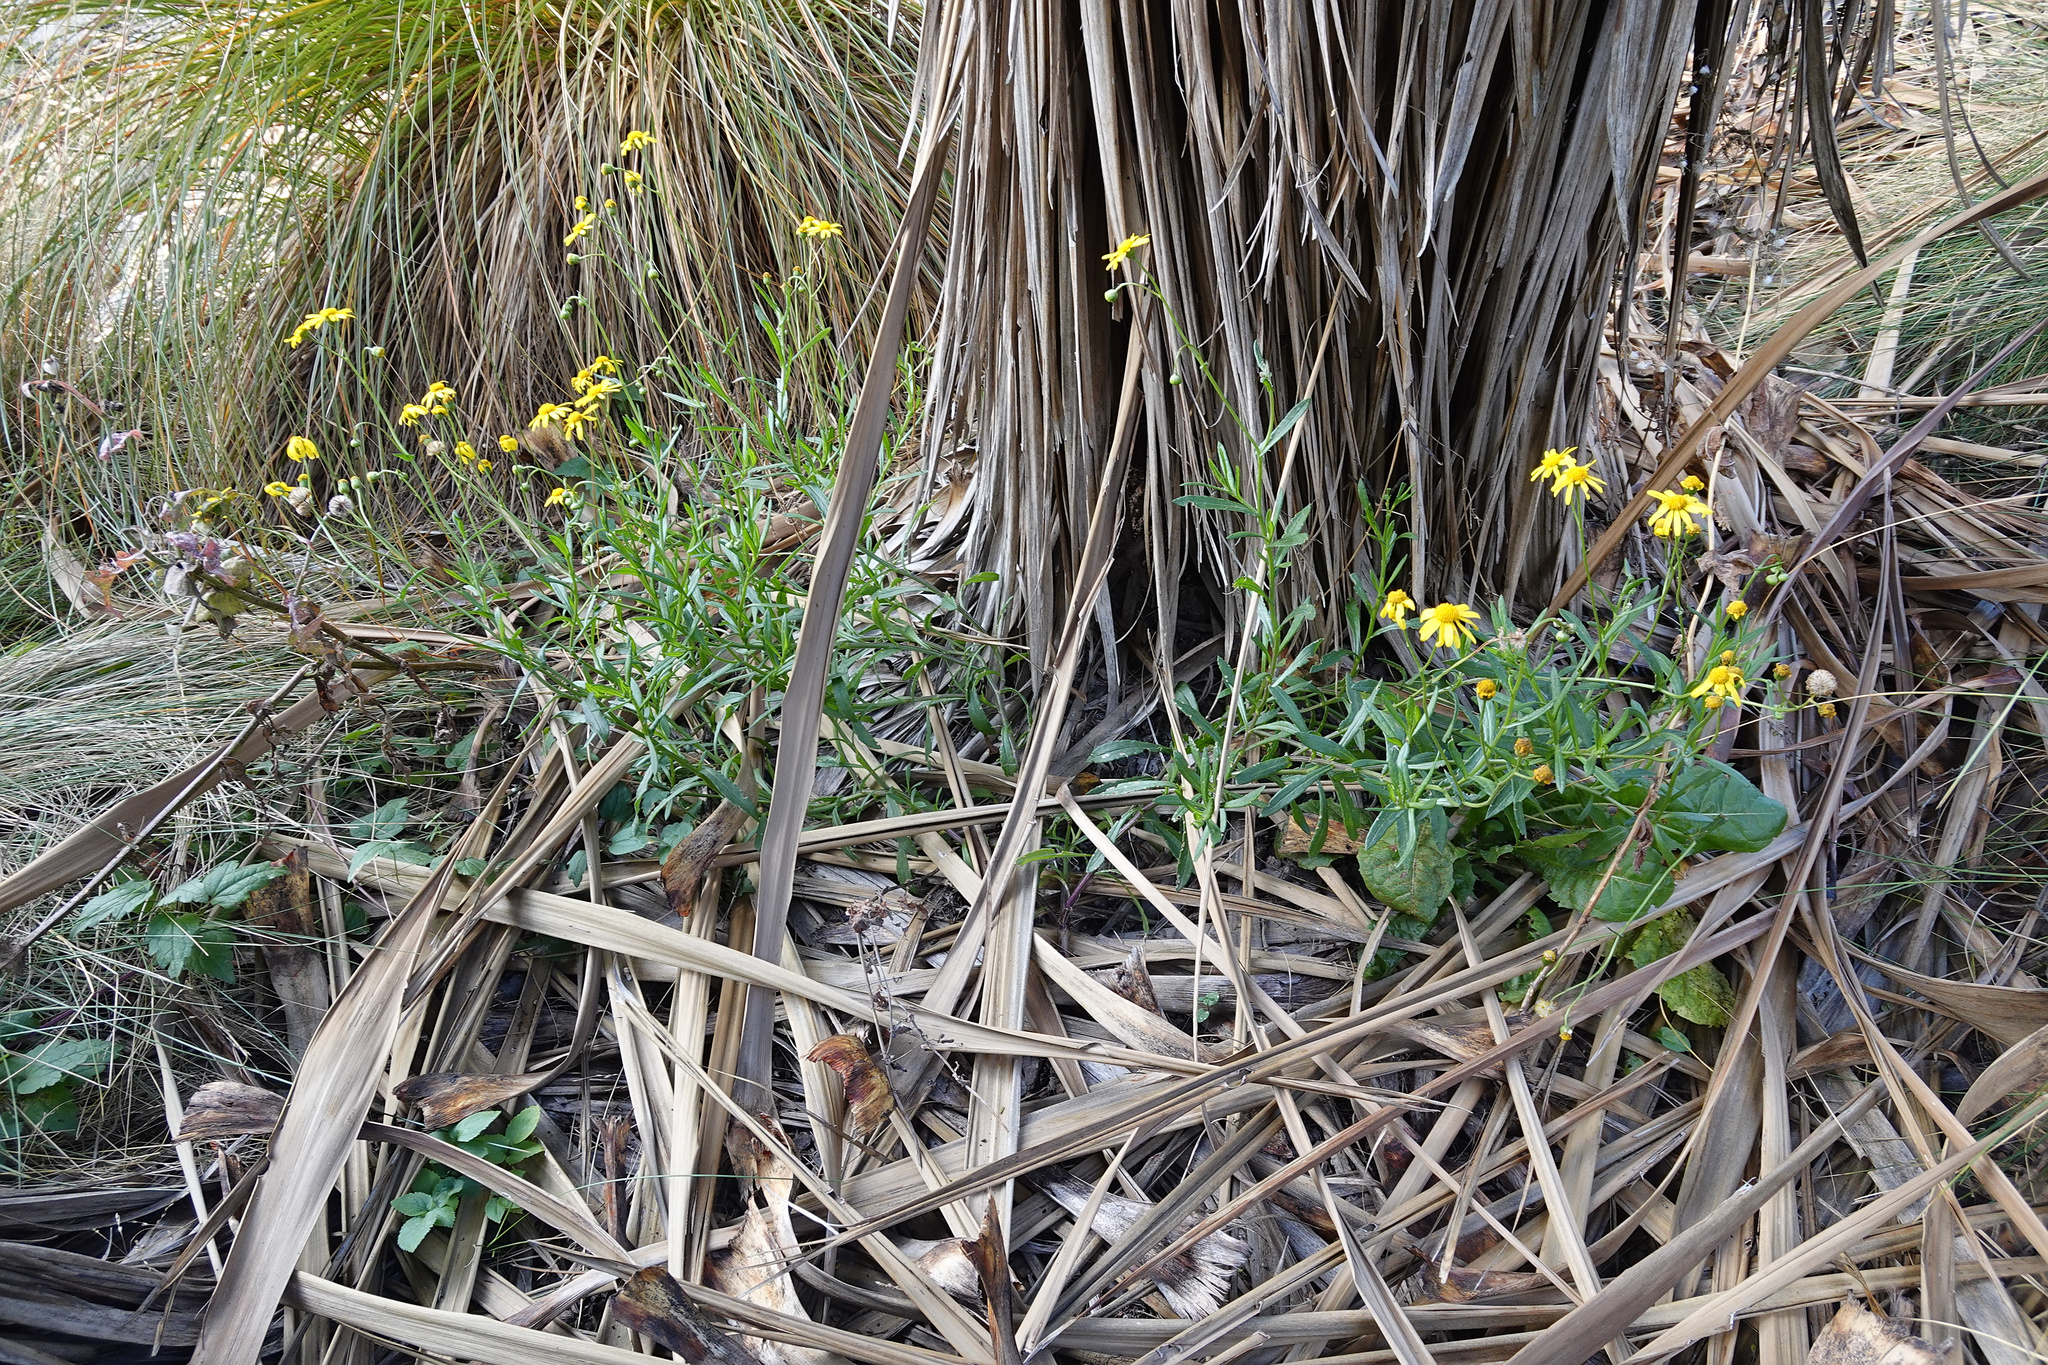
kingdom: Plantae
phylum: Tracheophyta
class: Magnoliopsida
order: Asterales
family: Asteraceae
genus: Senecio
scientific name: Senecio skirrhodon
